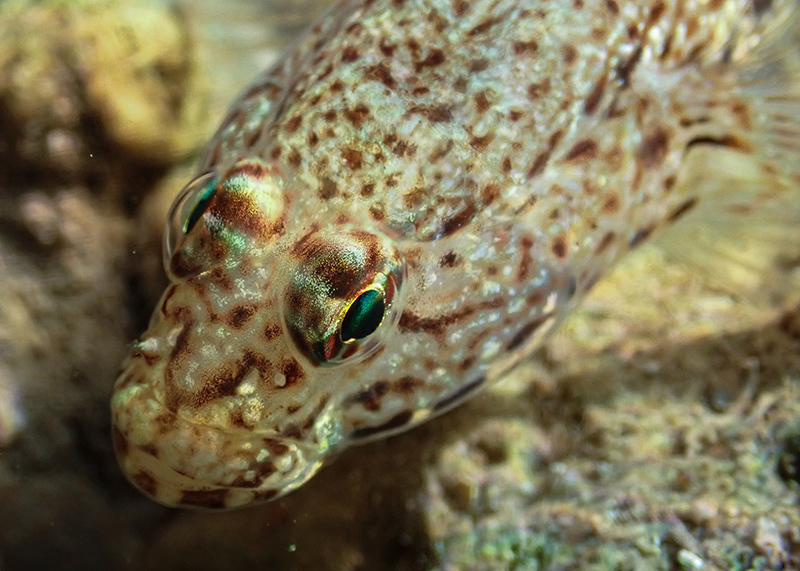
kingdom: Animalia
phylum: Chordata
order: Perciformes
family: Gobiidae
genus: Gobius
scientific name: Gobius incognitus
